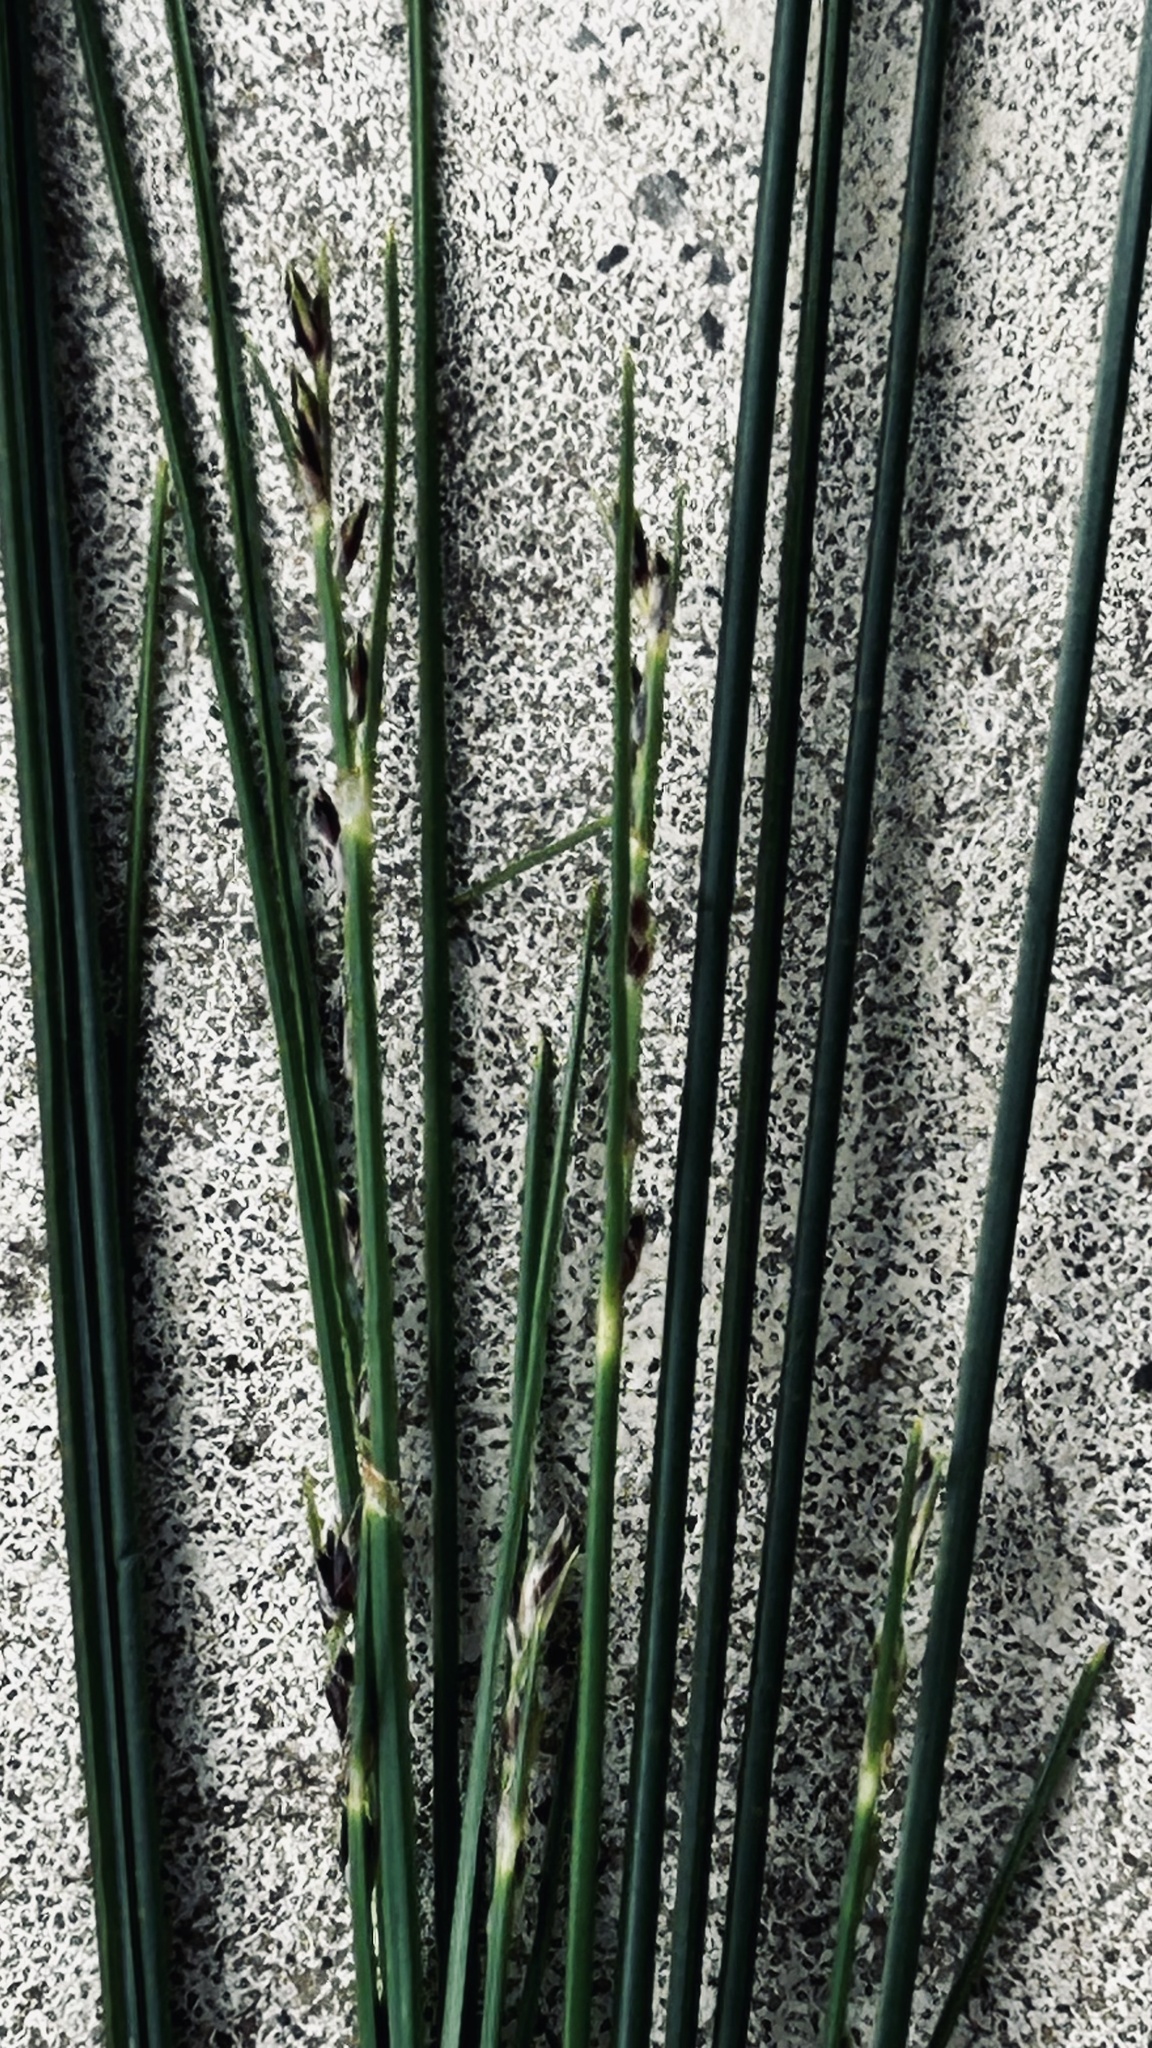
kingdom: Plantae
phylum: Tracheophyta
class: Liliopsida
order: Poales
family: Cyperaceae
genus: Ficinia
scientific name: Ficinia secunda
